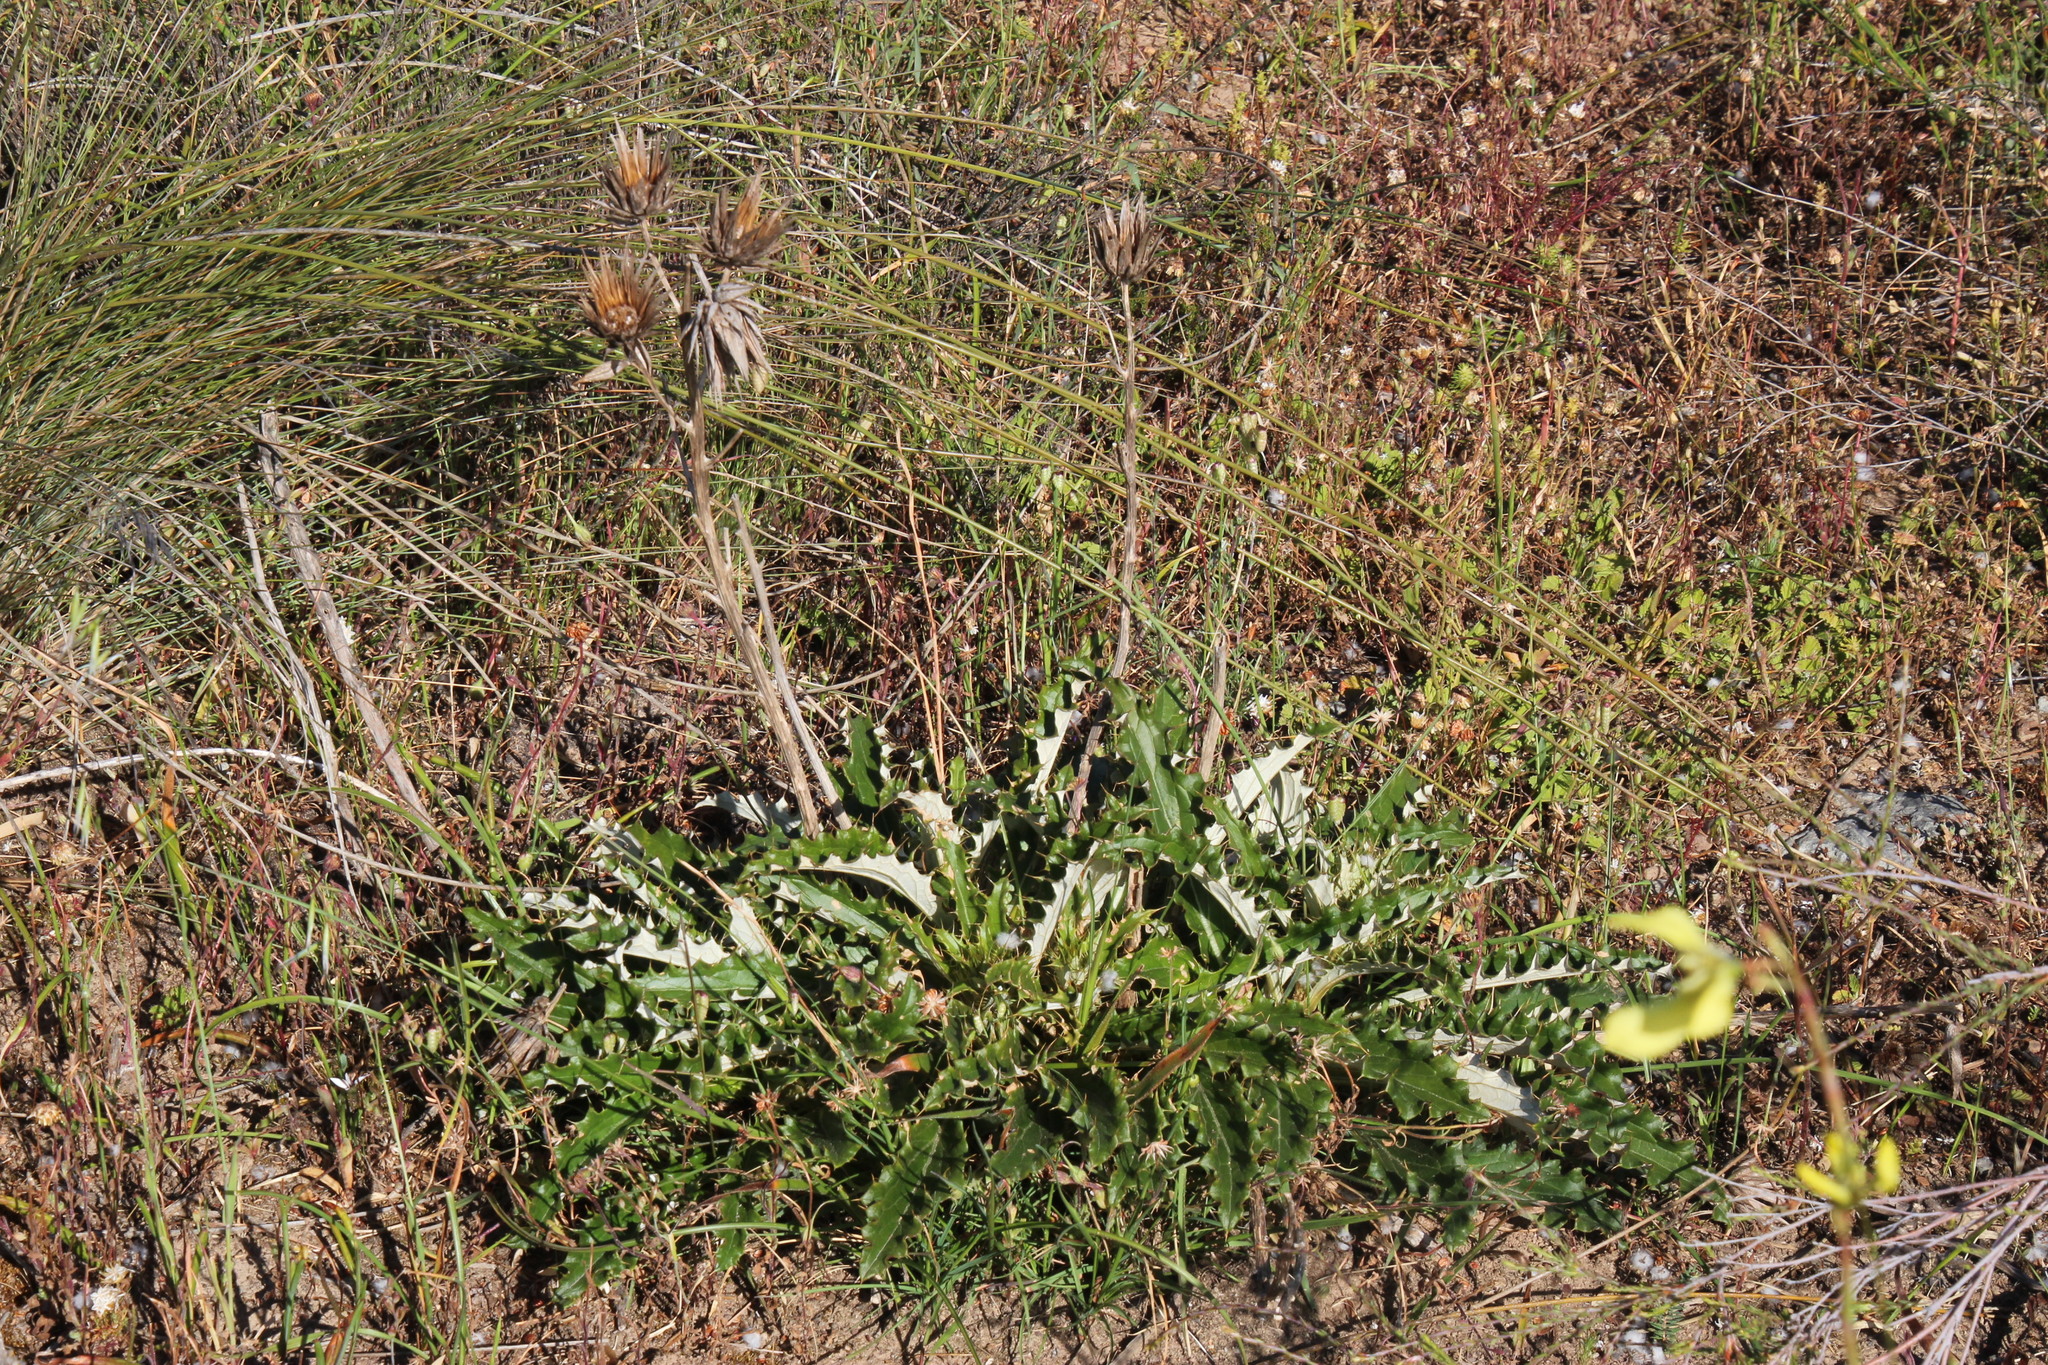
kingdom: Plantae
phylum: Tracheophyta
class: Magnoliopsida
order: Asterales
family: Asteraceae
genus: Berkheya
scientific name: Berkheya armata
